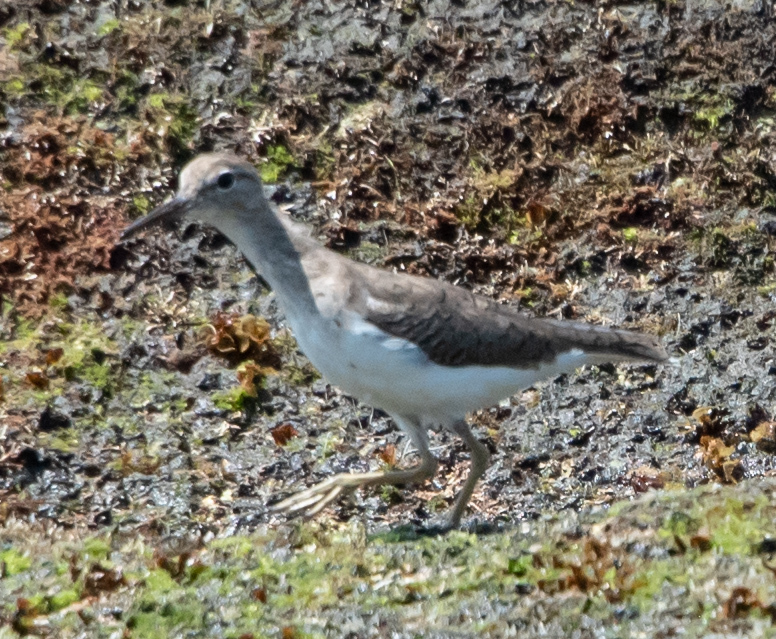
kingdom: Animalia
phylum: Chordata
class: Aves
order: Charadriiformes
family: Scolopacidae
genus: Tringa
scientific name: Tringa solitaria
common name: Solitary sandpiper
